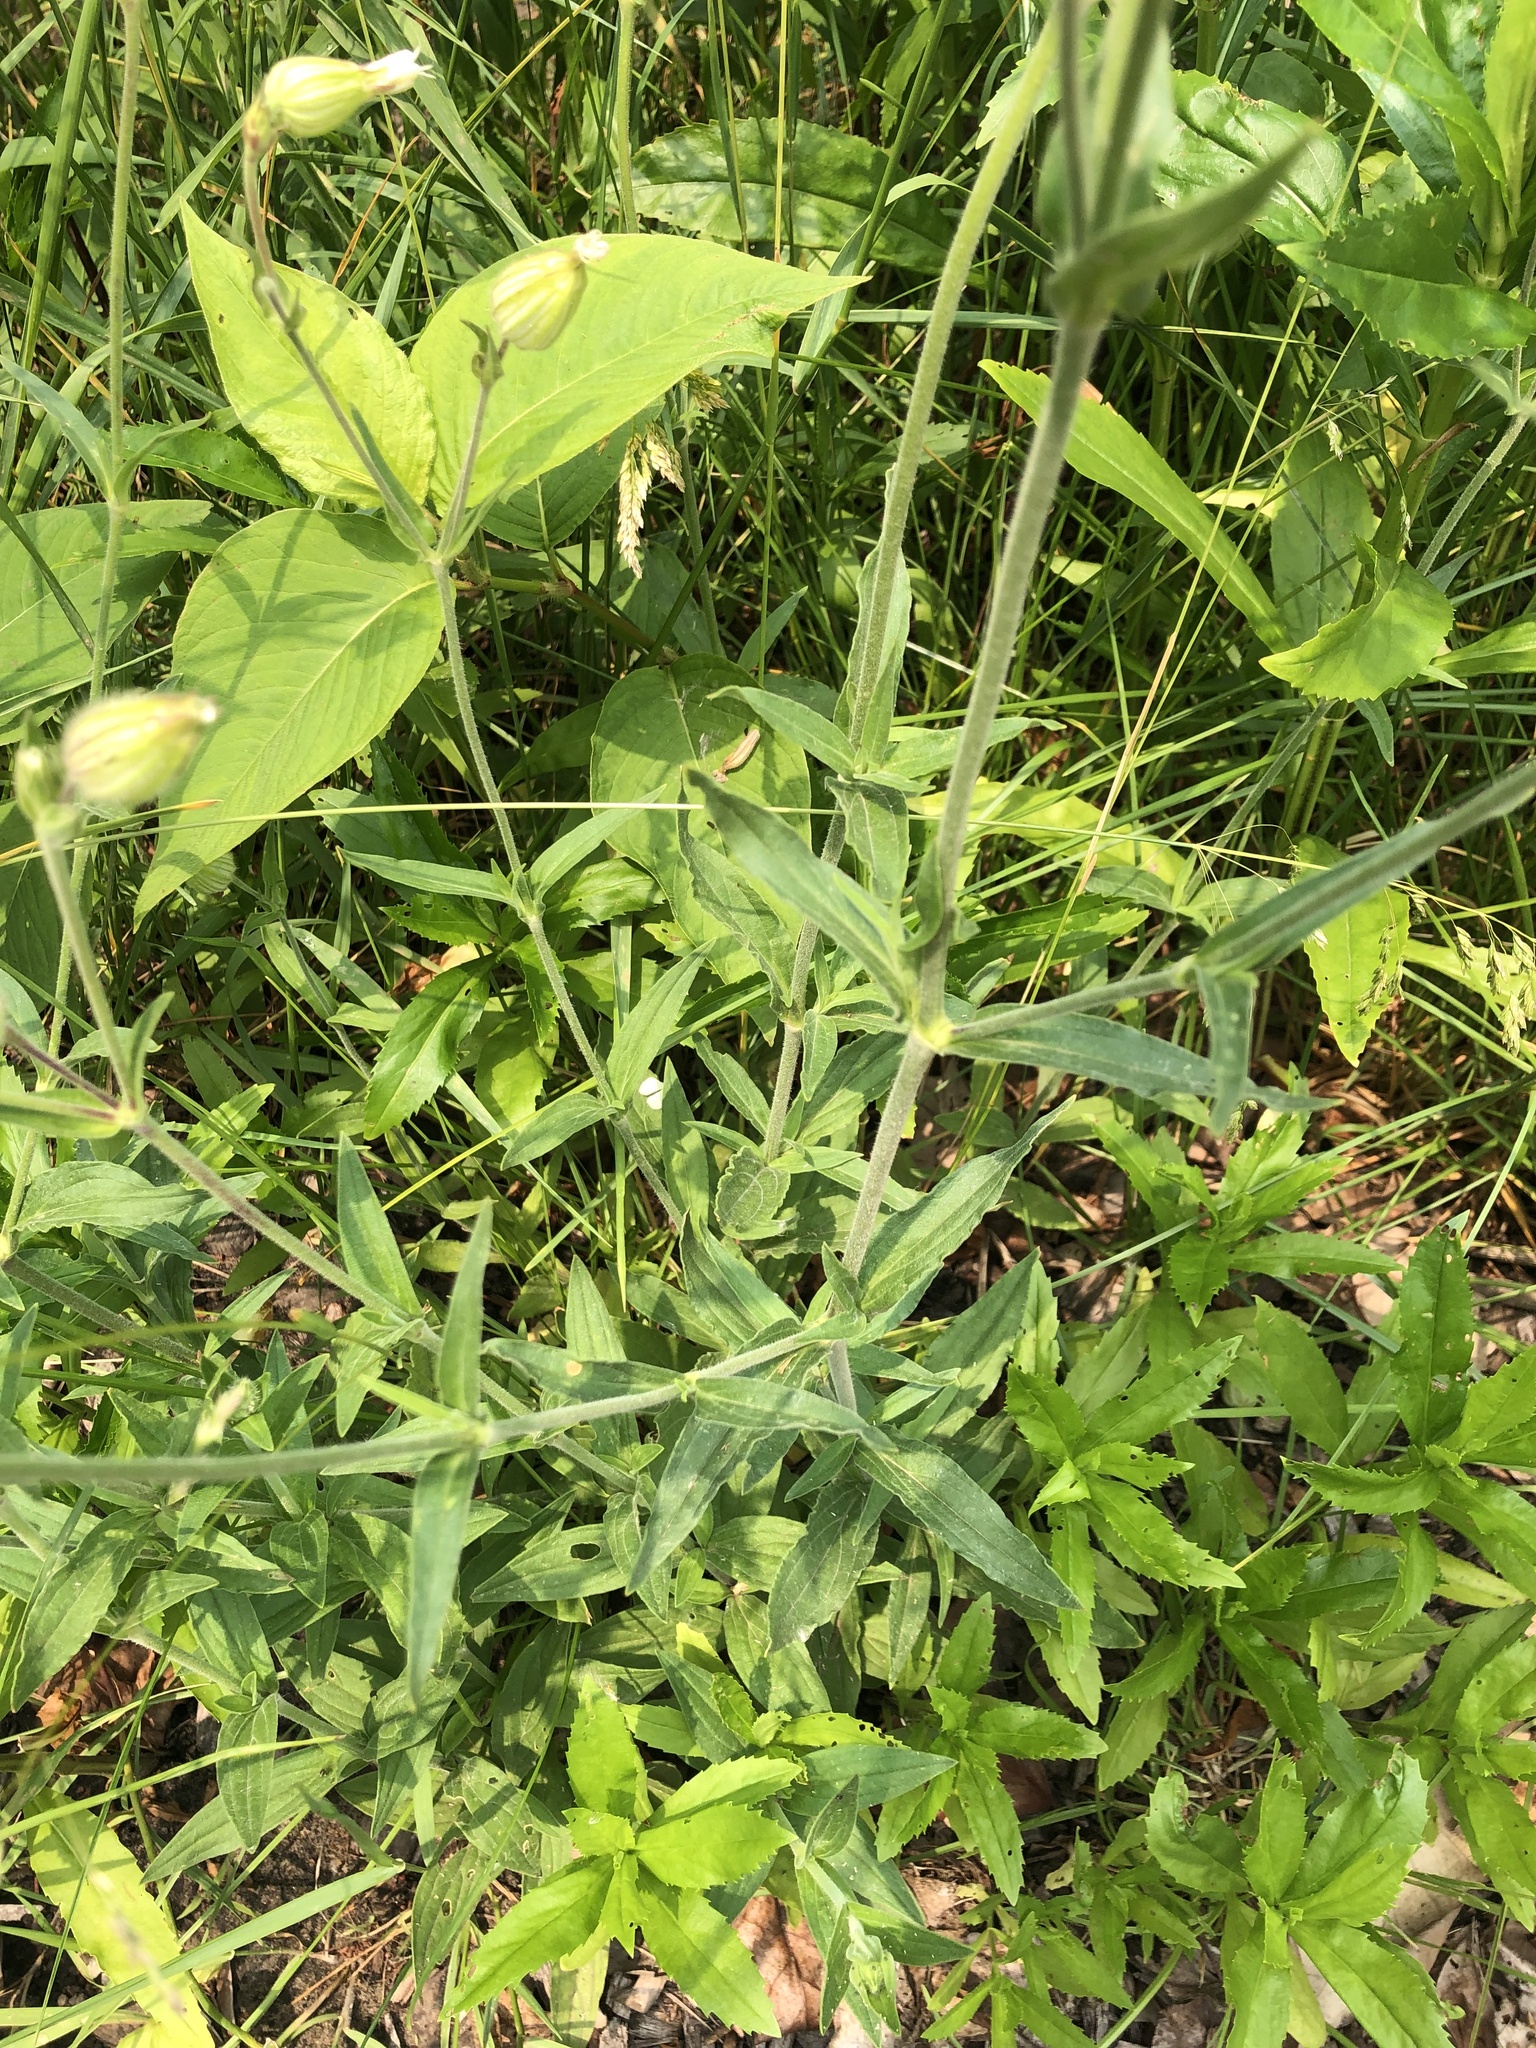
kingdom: Plantae
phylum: Tracheophyta
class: Magnoliopsida
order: Caryophyllales
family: Caryophyllaceae
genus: Silene
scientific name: Silene latifolia
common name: White campion
